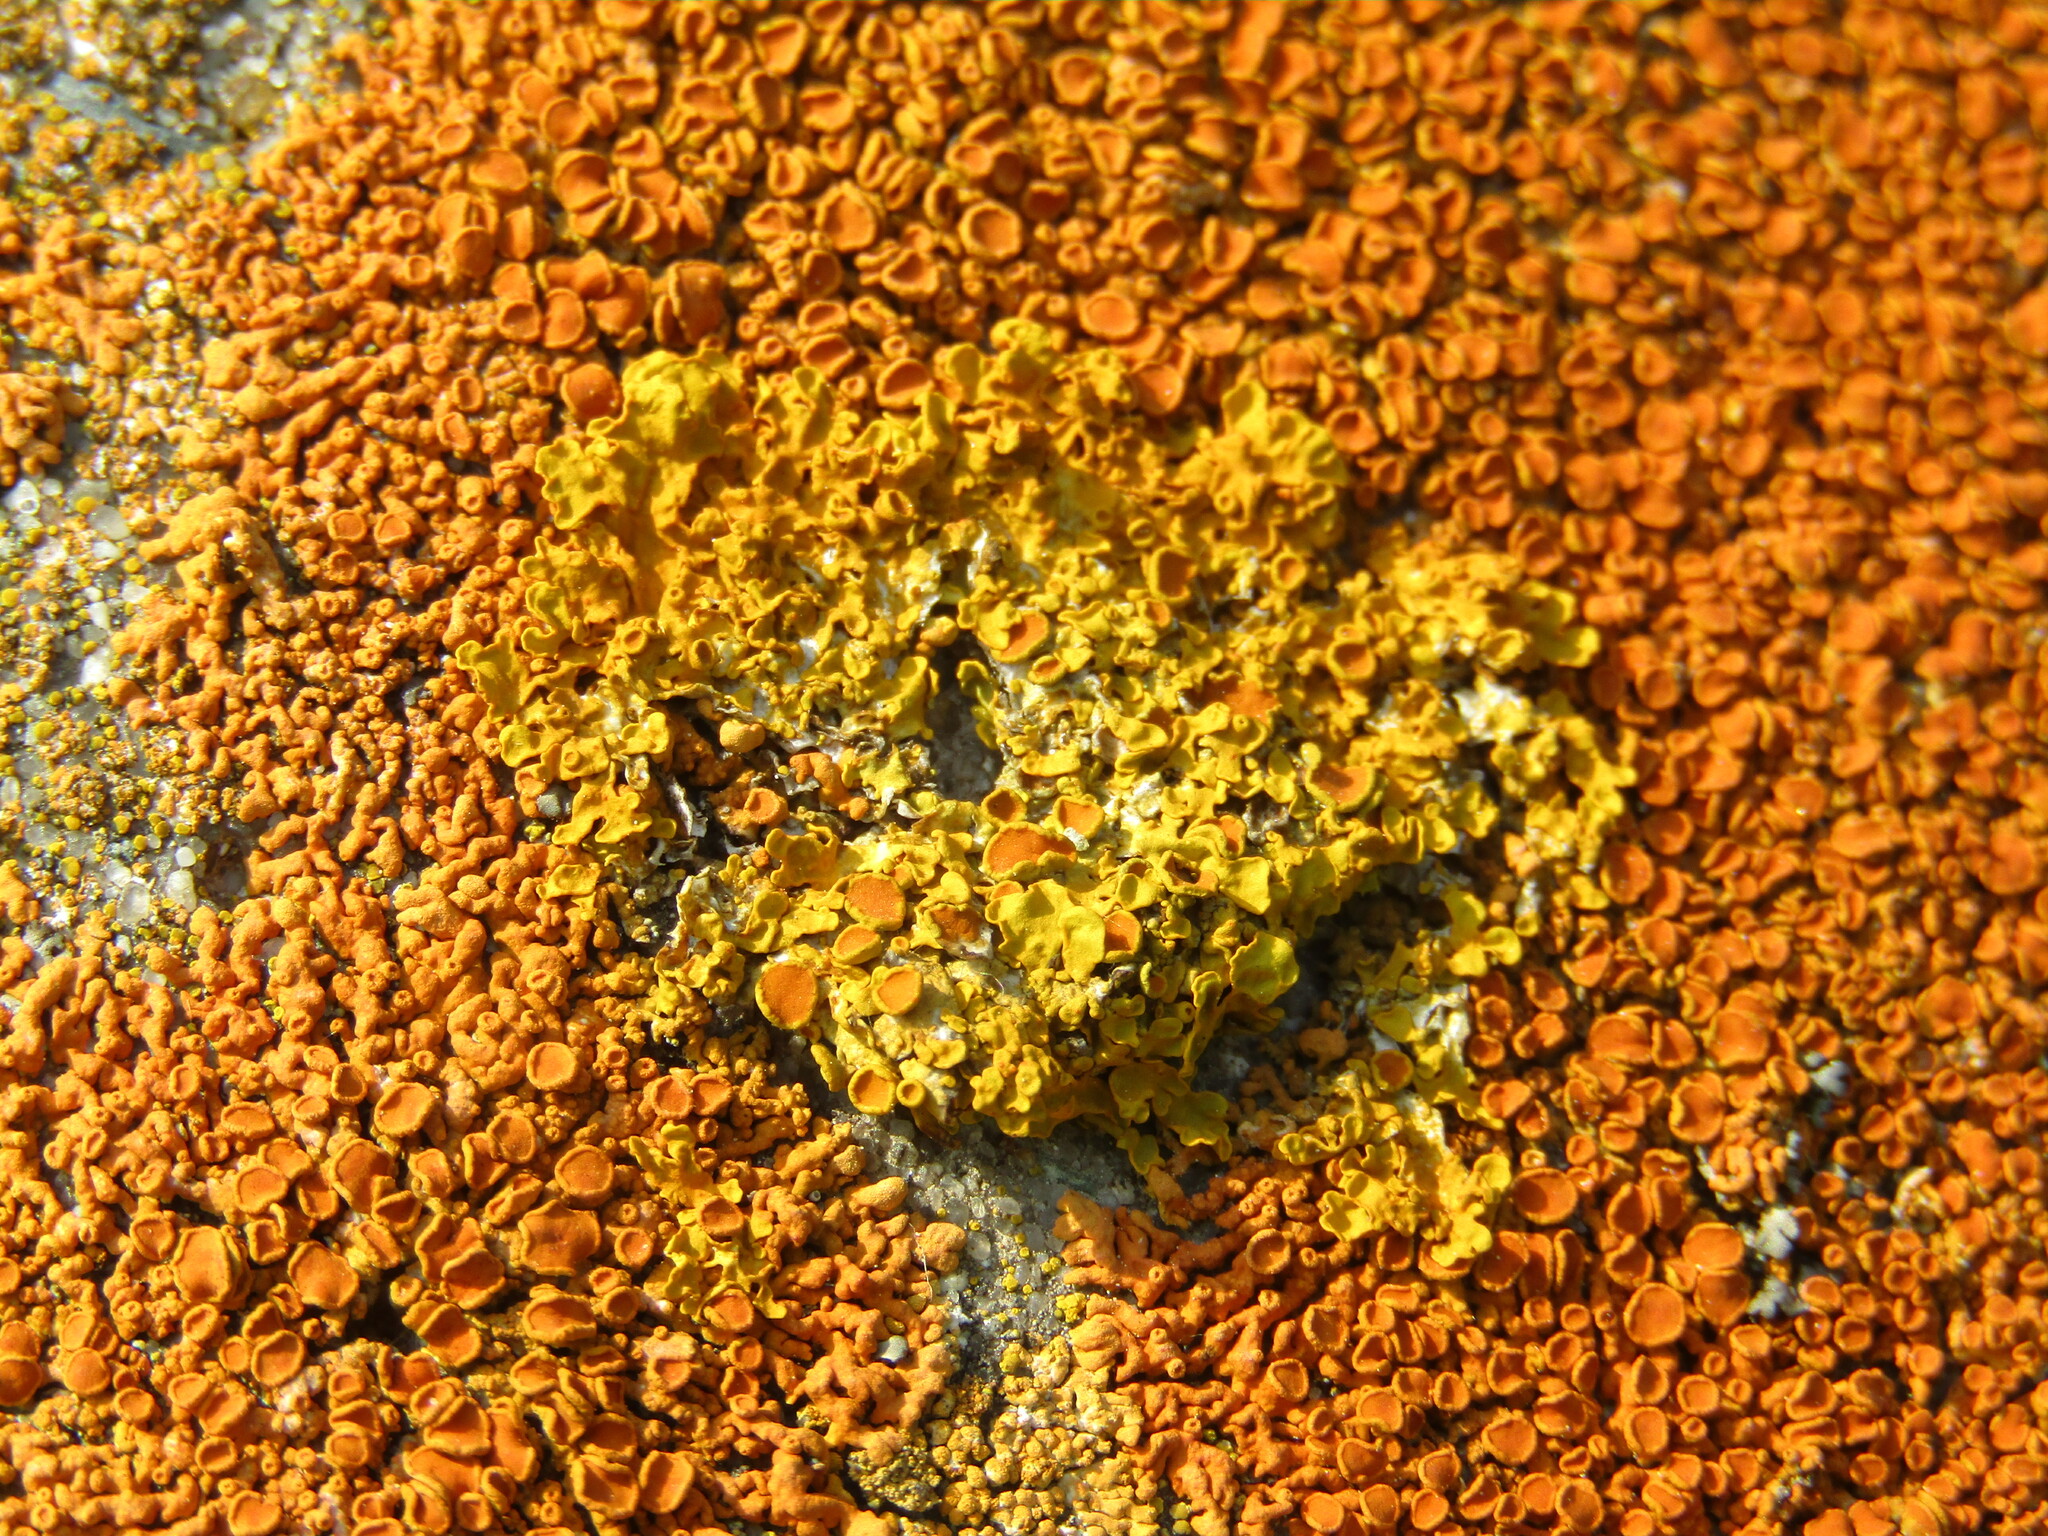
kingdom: Fungi
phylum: Ascomycota
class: Lecanoromycetes
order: Teloschistales
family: Teloschistaceae
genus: Xanthoria
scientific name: Xanthoria parietina
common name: Common orange lichen
